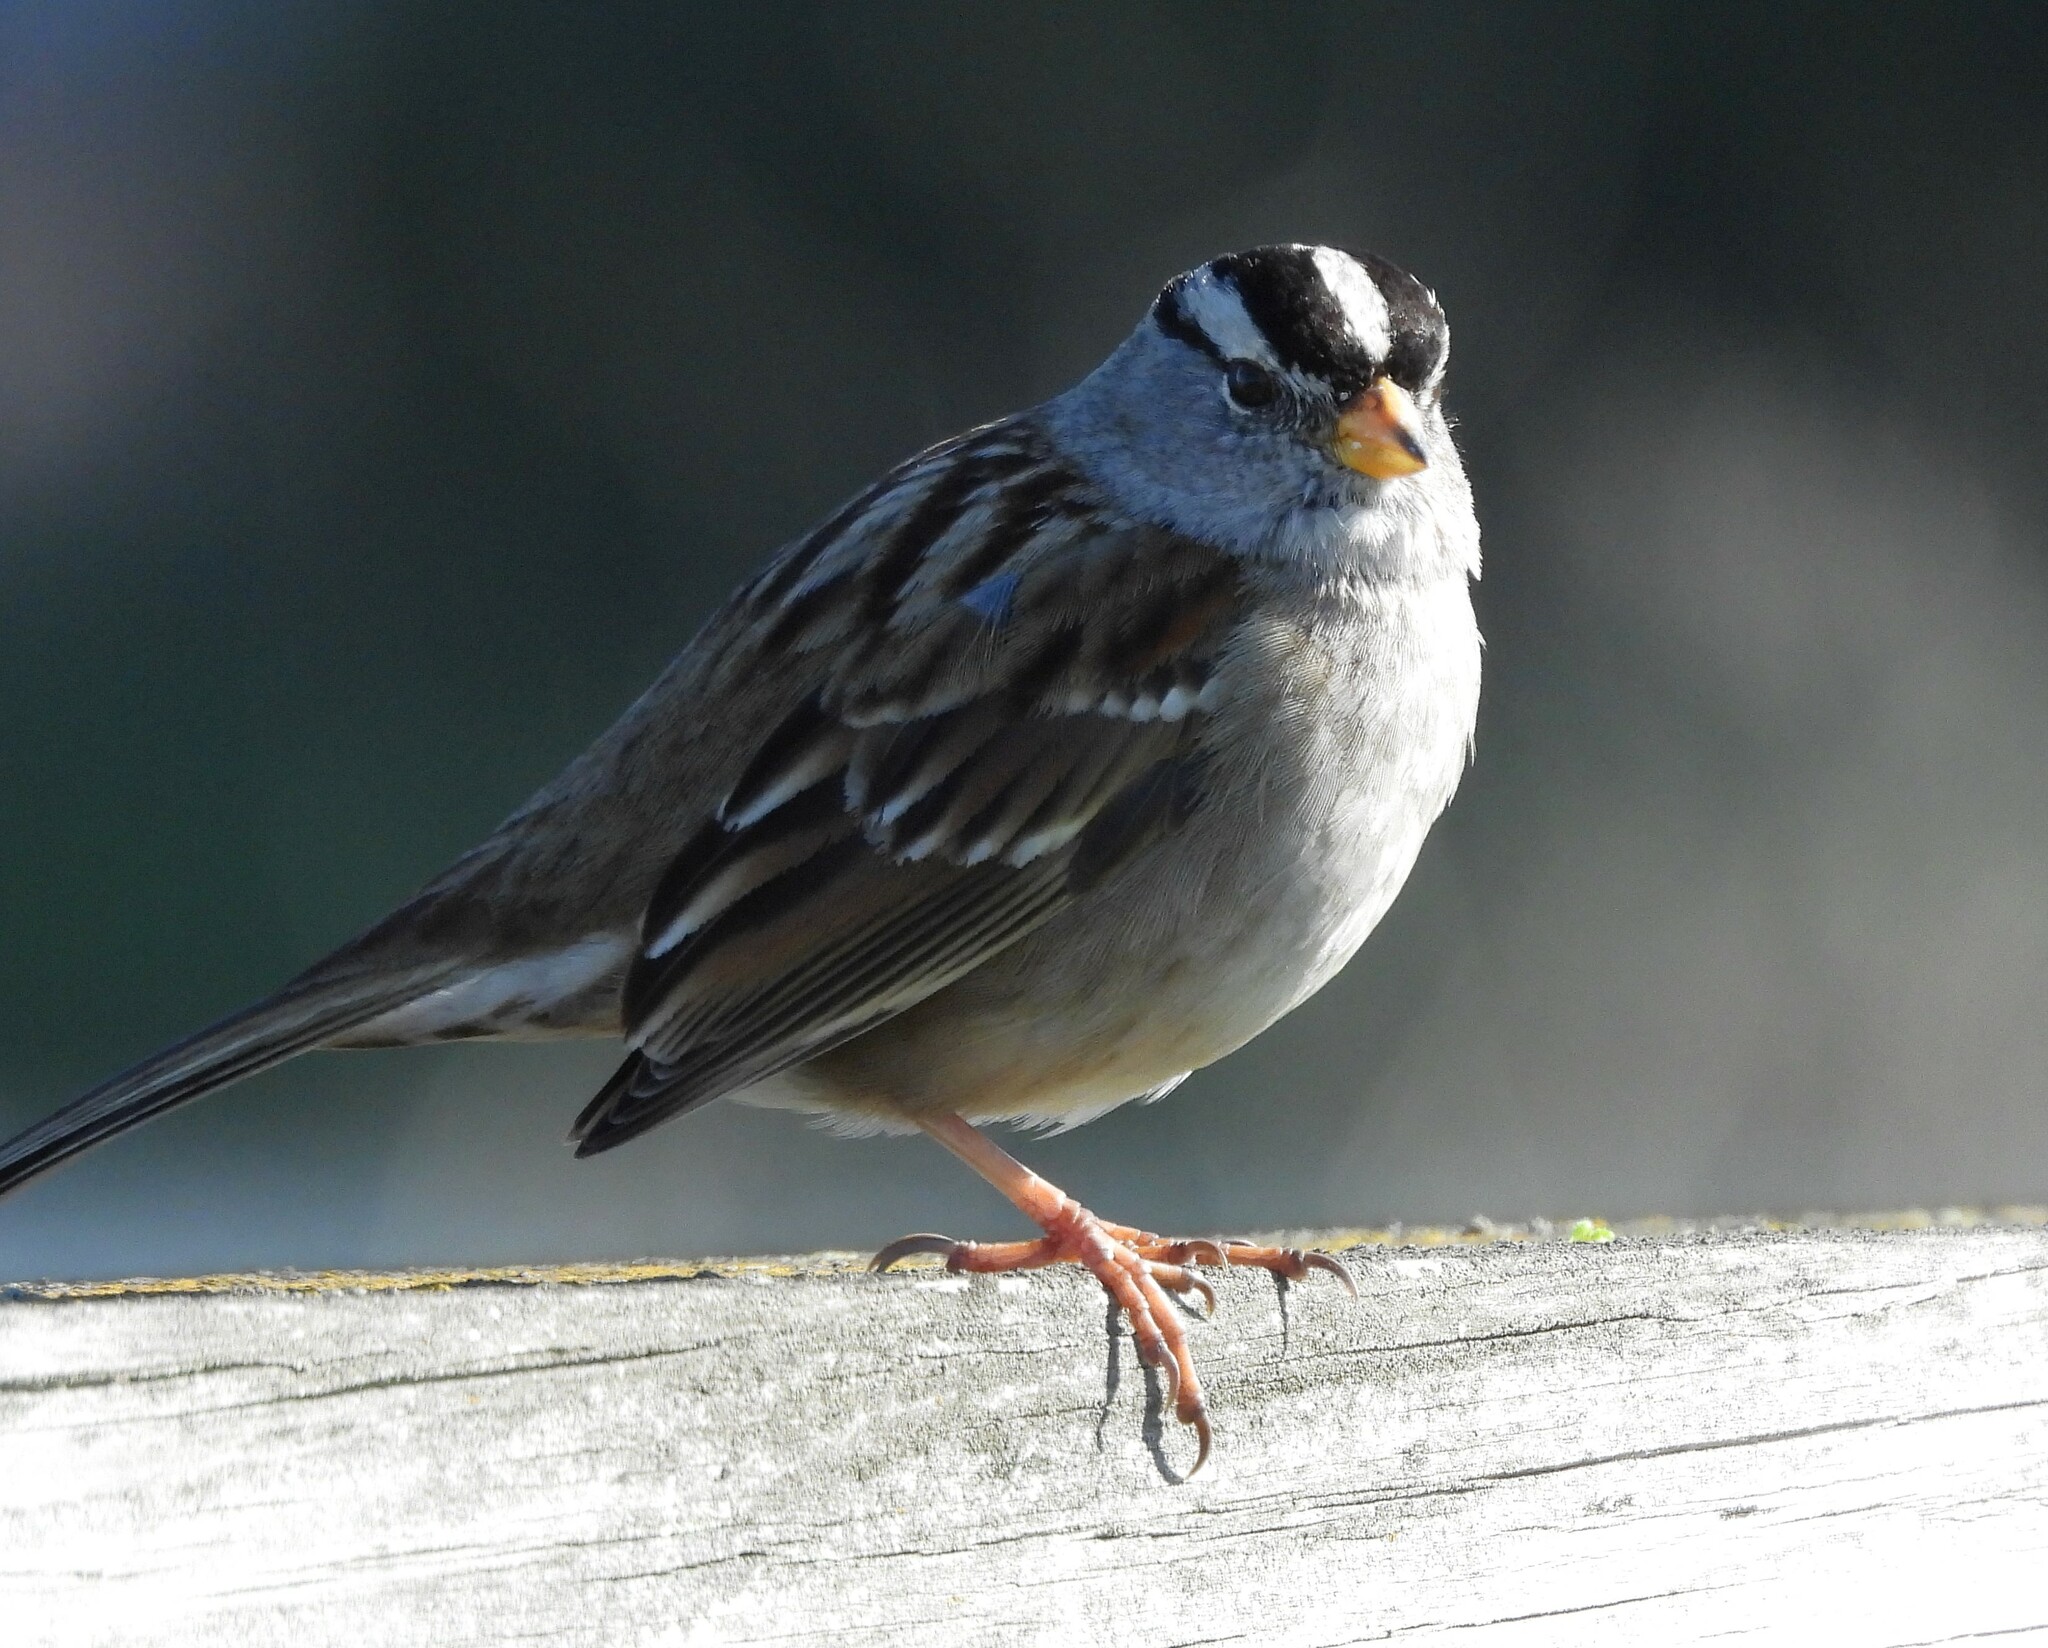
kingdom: Animalia
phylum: Chordata
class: Aves
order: Passeriformes
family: Passerellidae
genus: Zonotrichia
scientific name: Zonotrichia leucophrys
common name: White-crowned sparrow
